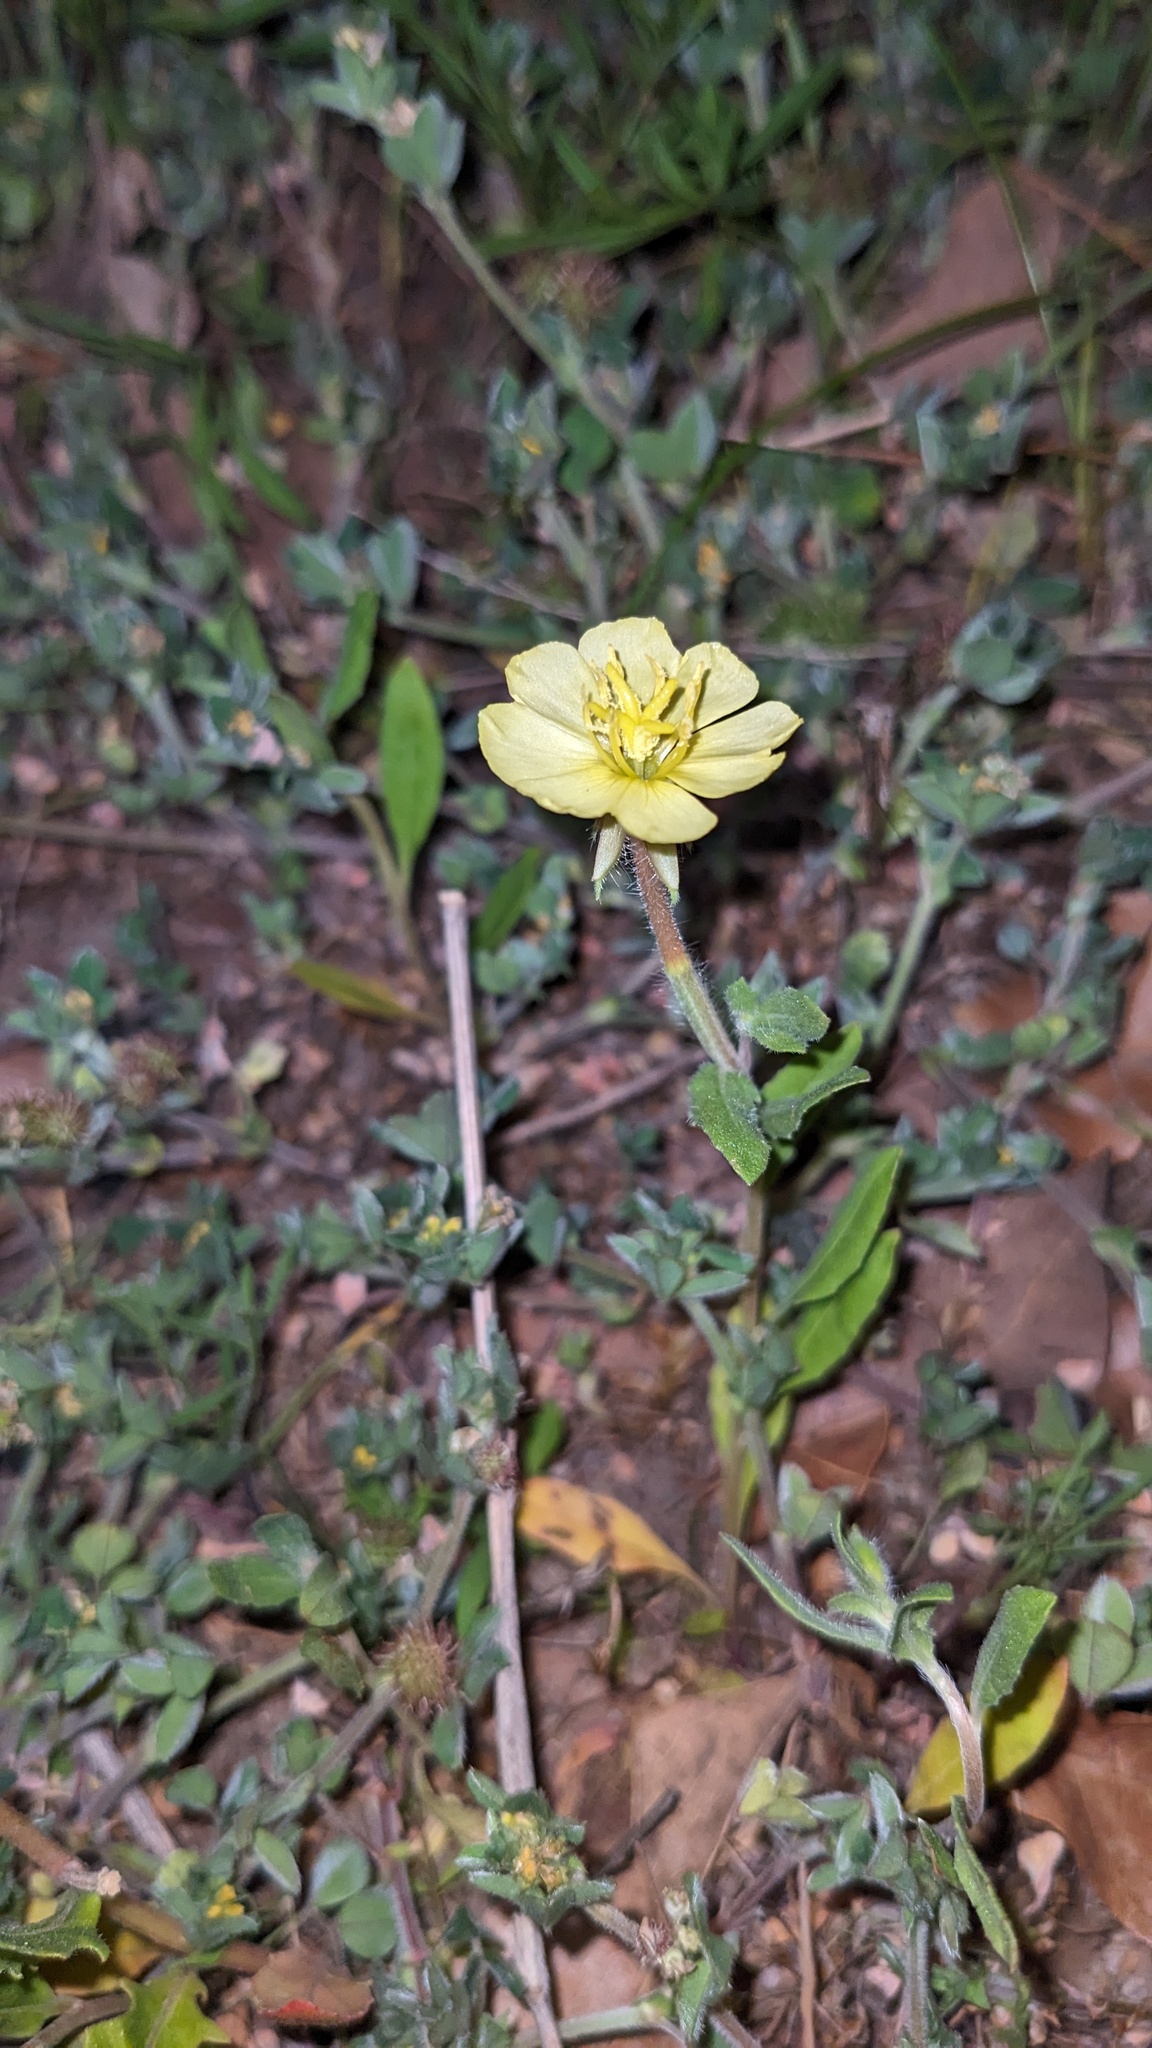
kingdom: Plantae
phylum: Tracheophyta
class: Magnoliopsida
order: Myrtales
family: Onagraceae
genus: Oenothera
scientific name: Oenothera laciniata
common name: Cut-leaved evening-primrose
